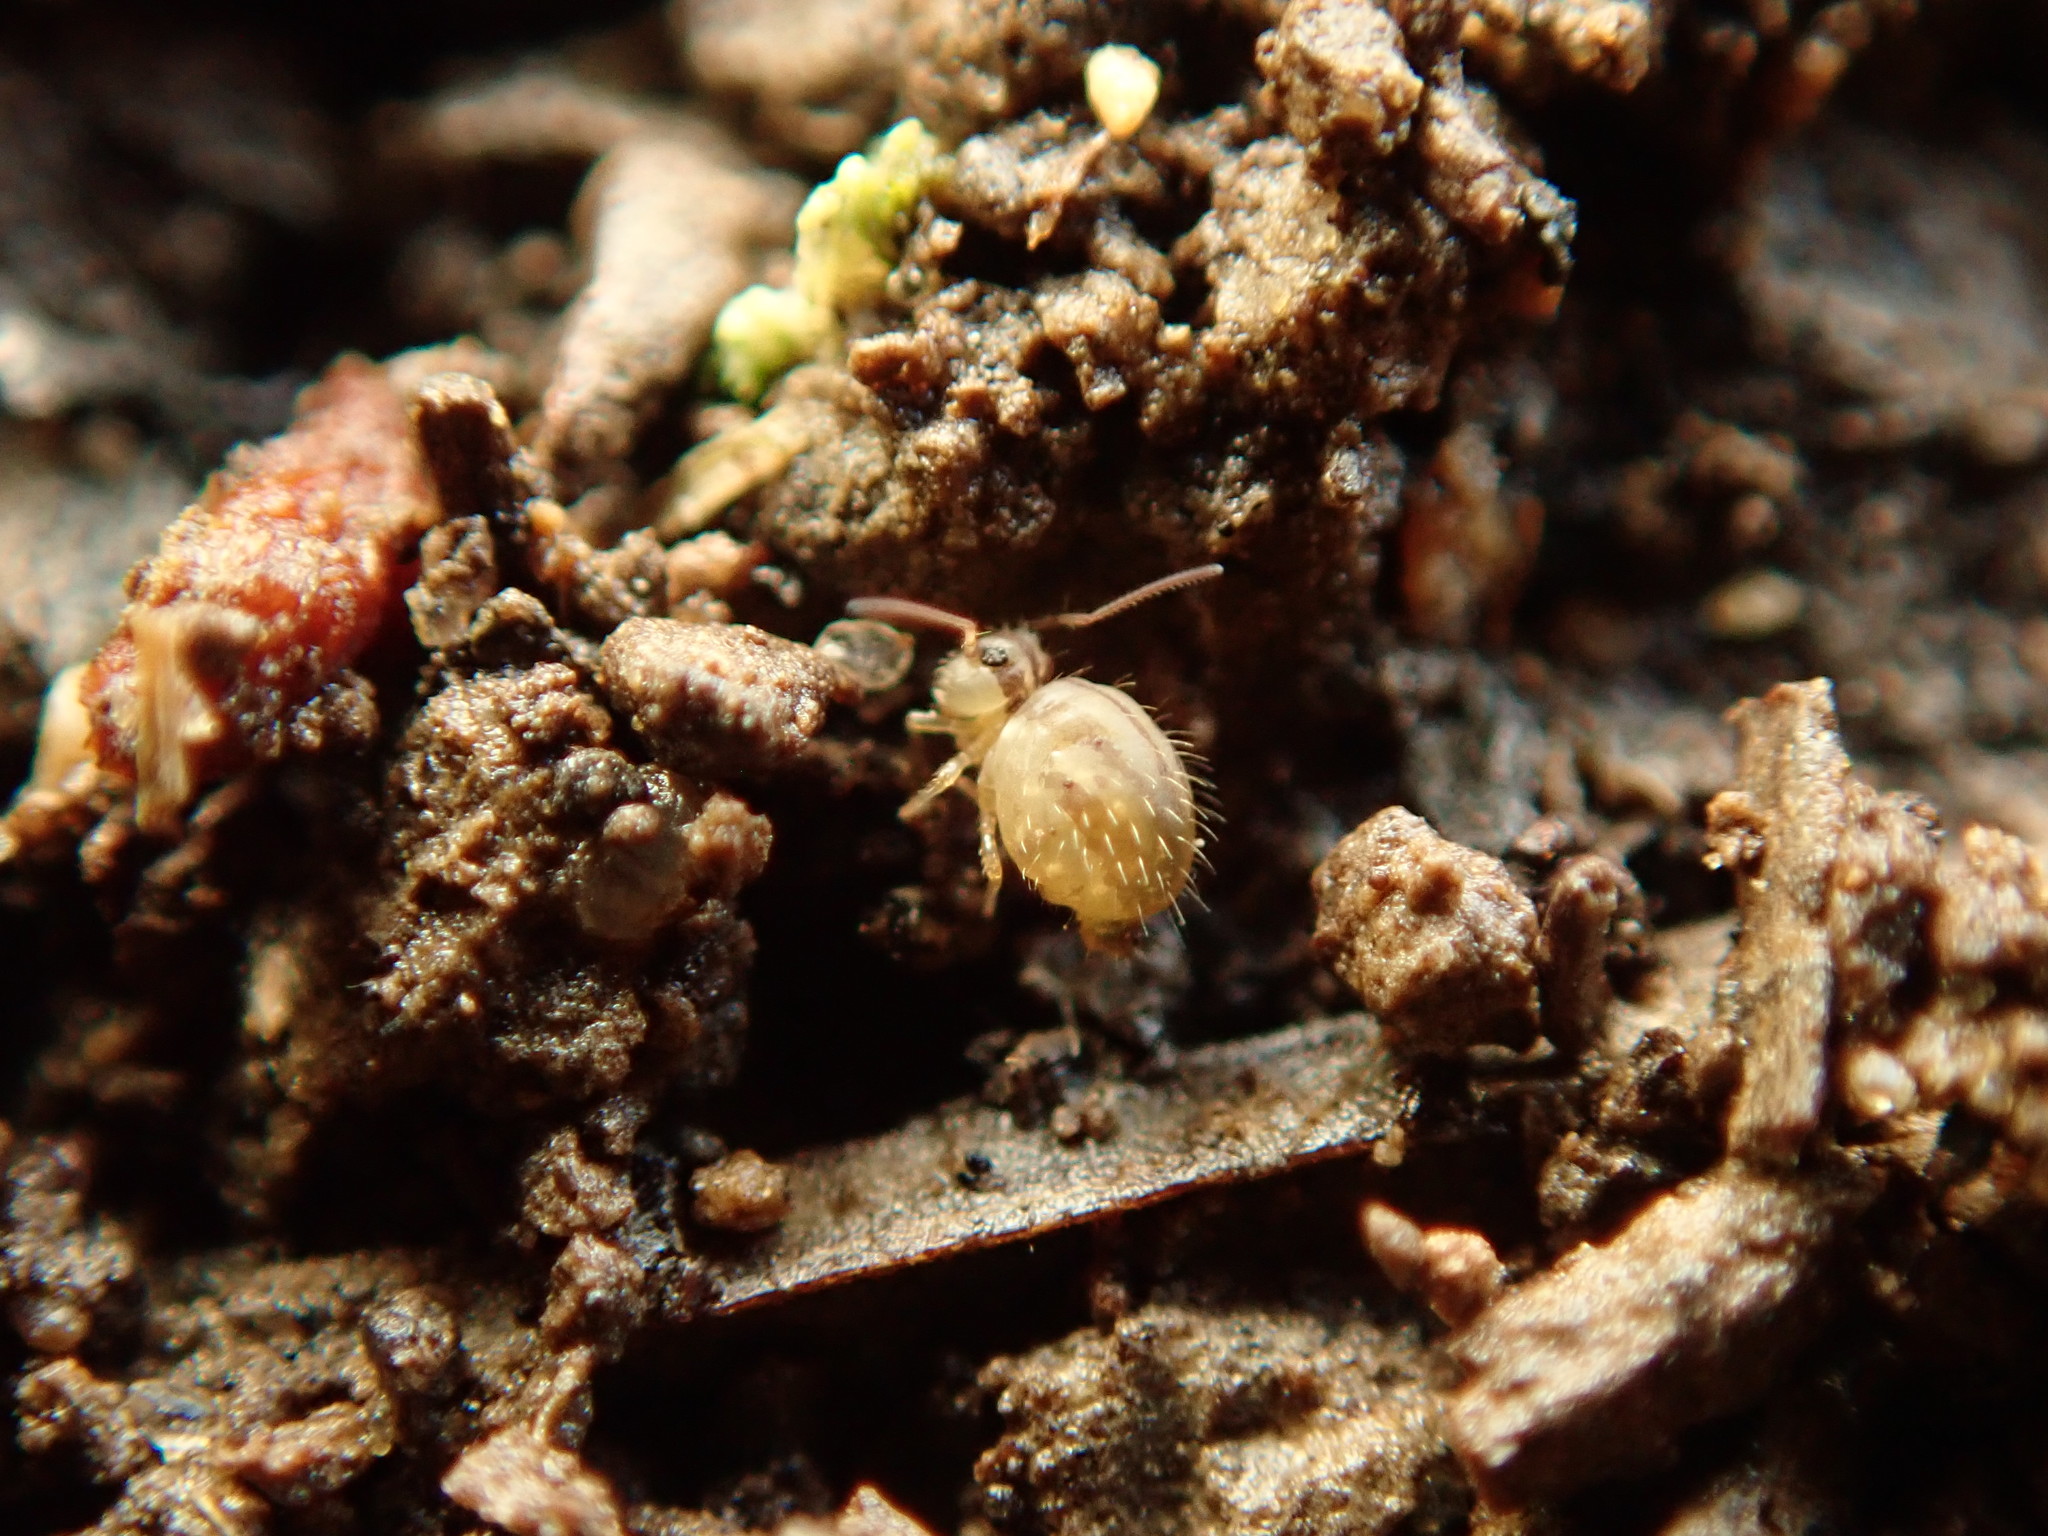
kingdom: Animalia
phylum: Arthropoda
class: Collembola
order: Symphypleona
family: Sminthuridae
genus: Sminthurus
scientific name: Sminthurus mencenbergae
